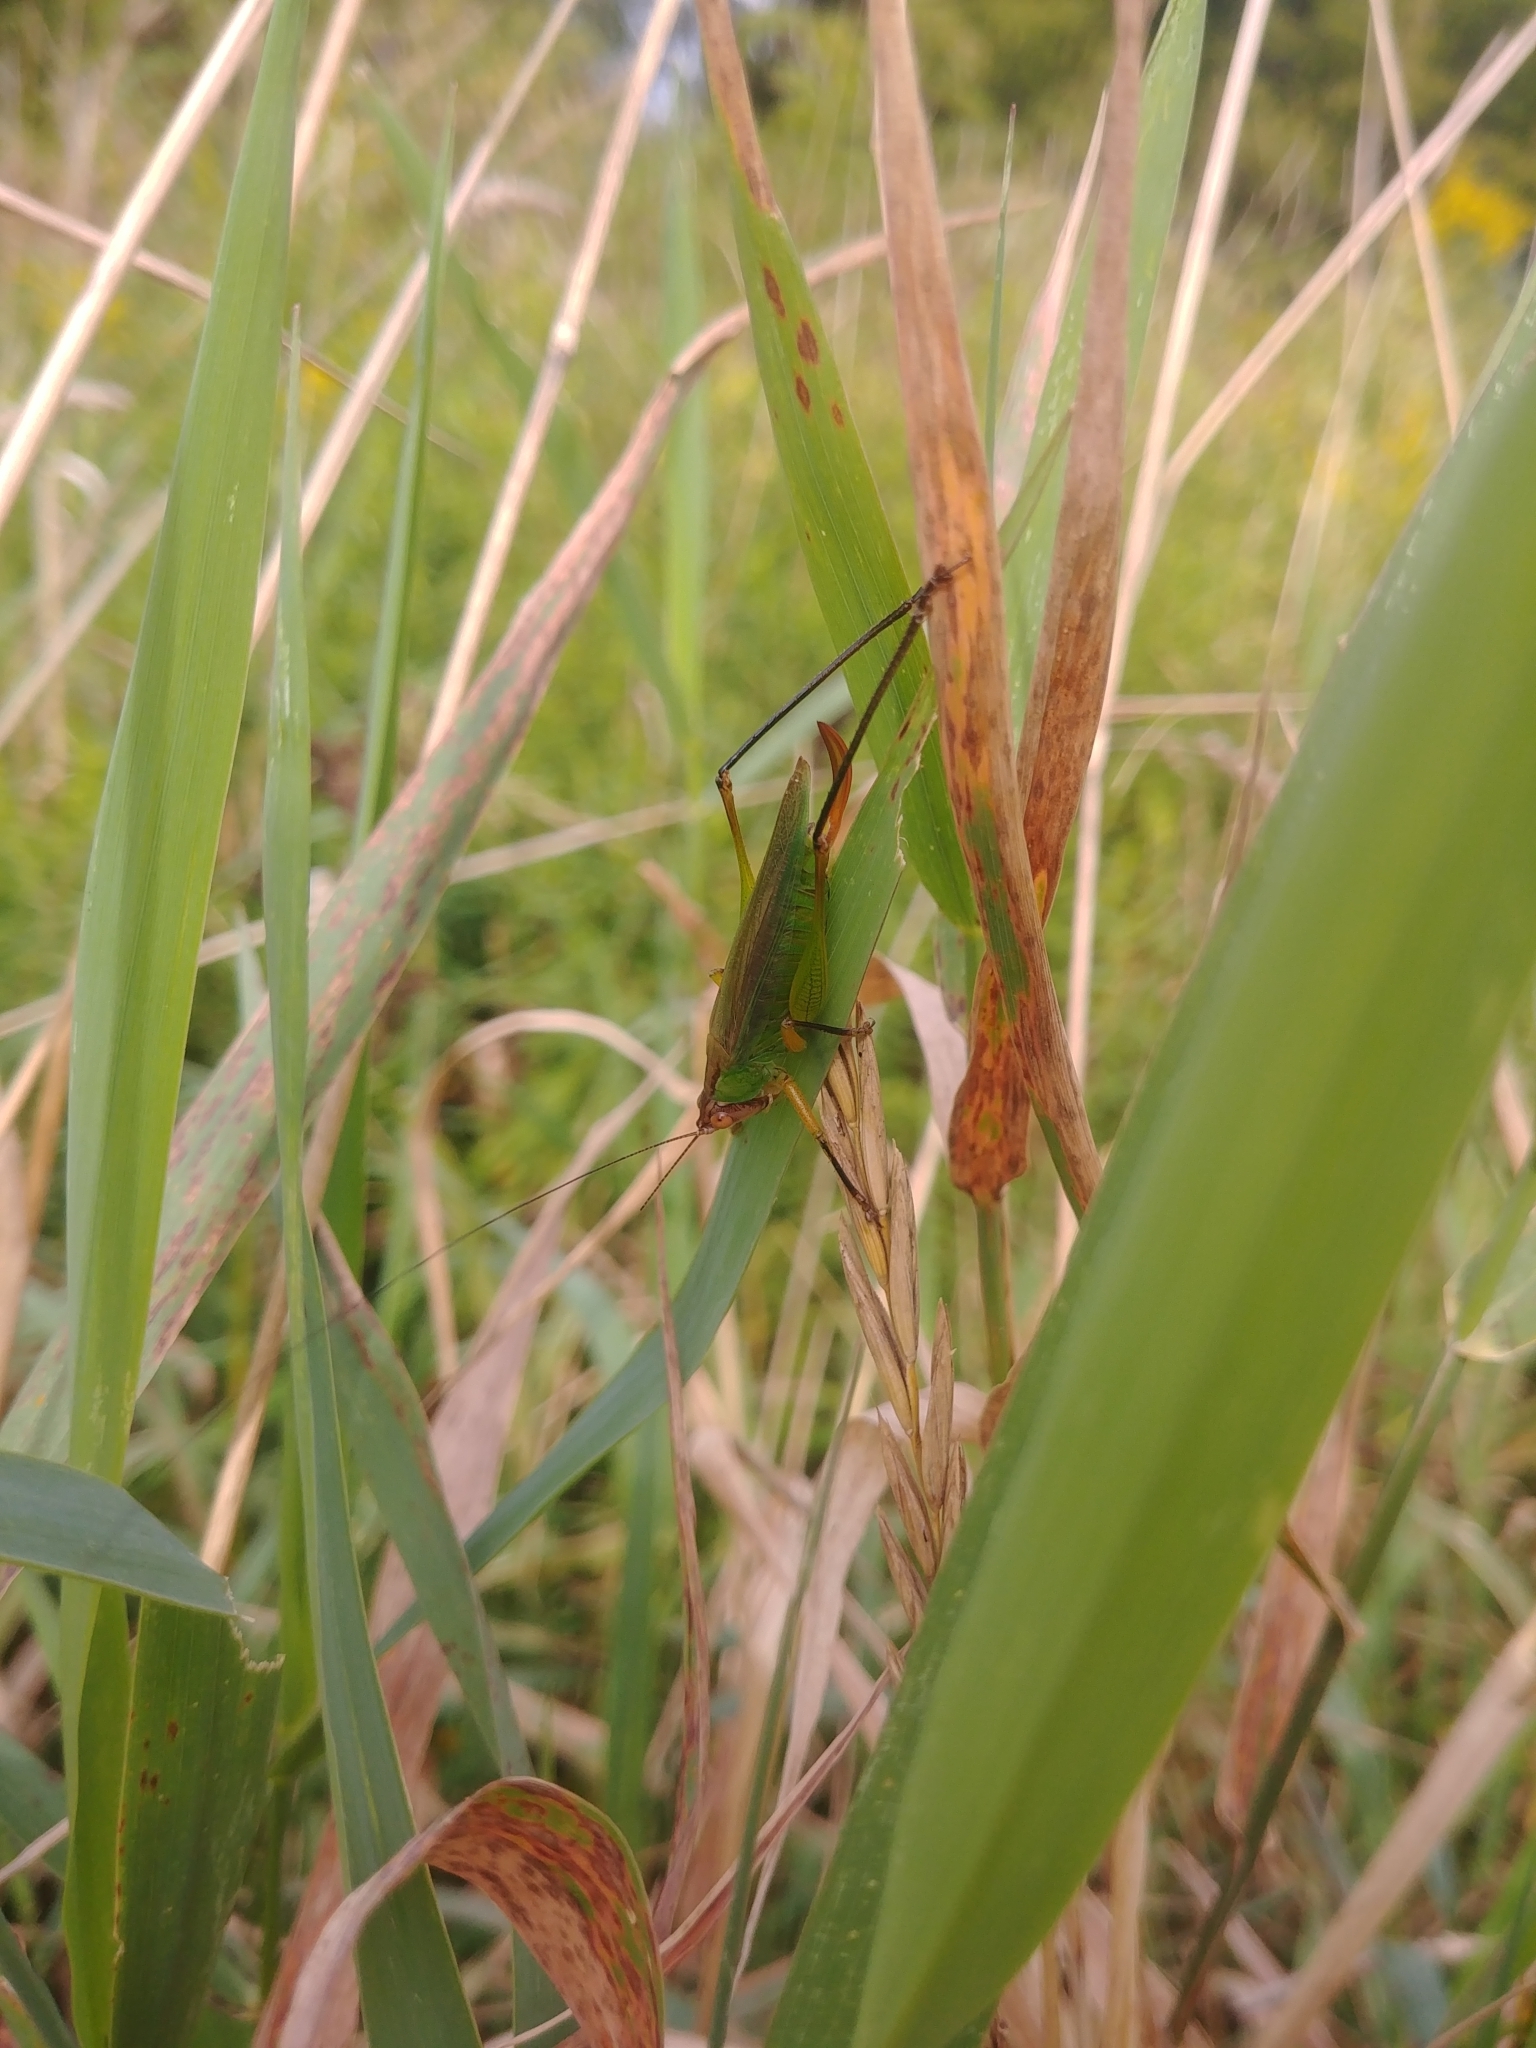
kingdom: Animalia
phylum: Arthropoda
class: Insecta
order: Orthoptera
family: Tettigoniidae
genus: Orchelimum
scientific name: Orchelimum nigripes
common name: Black-legged meadow katydid
